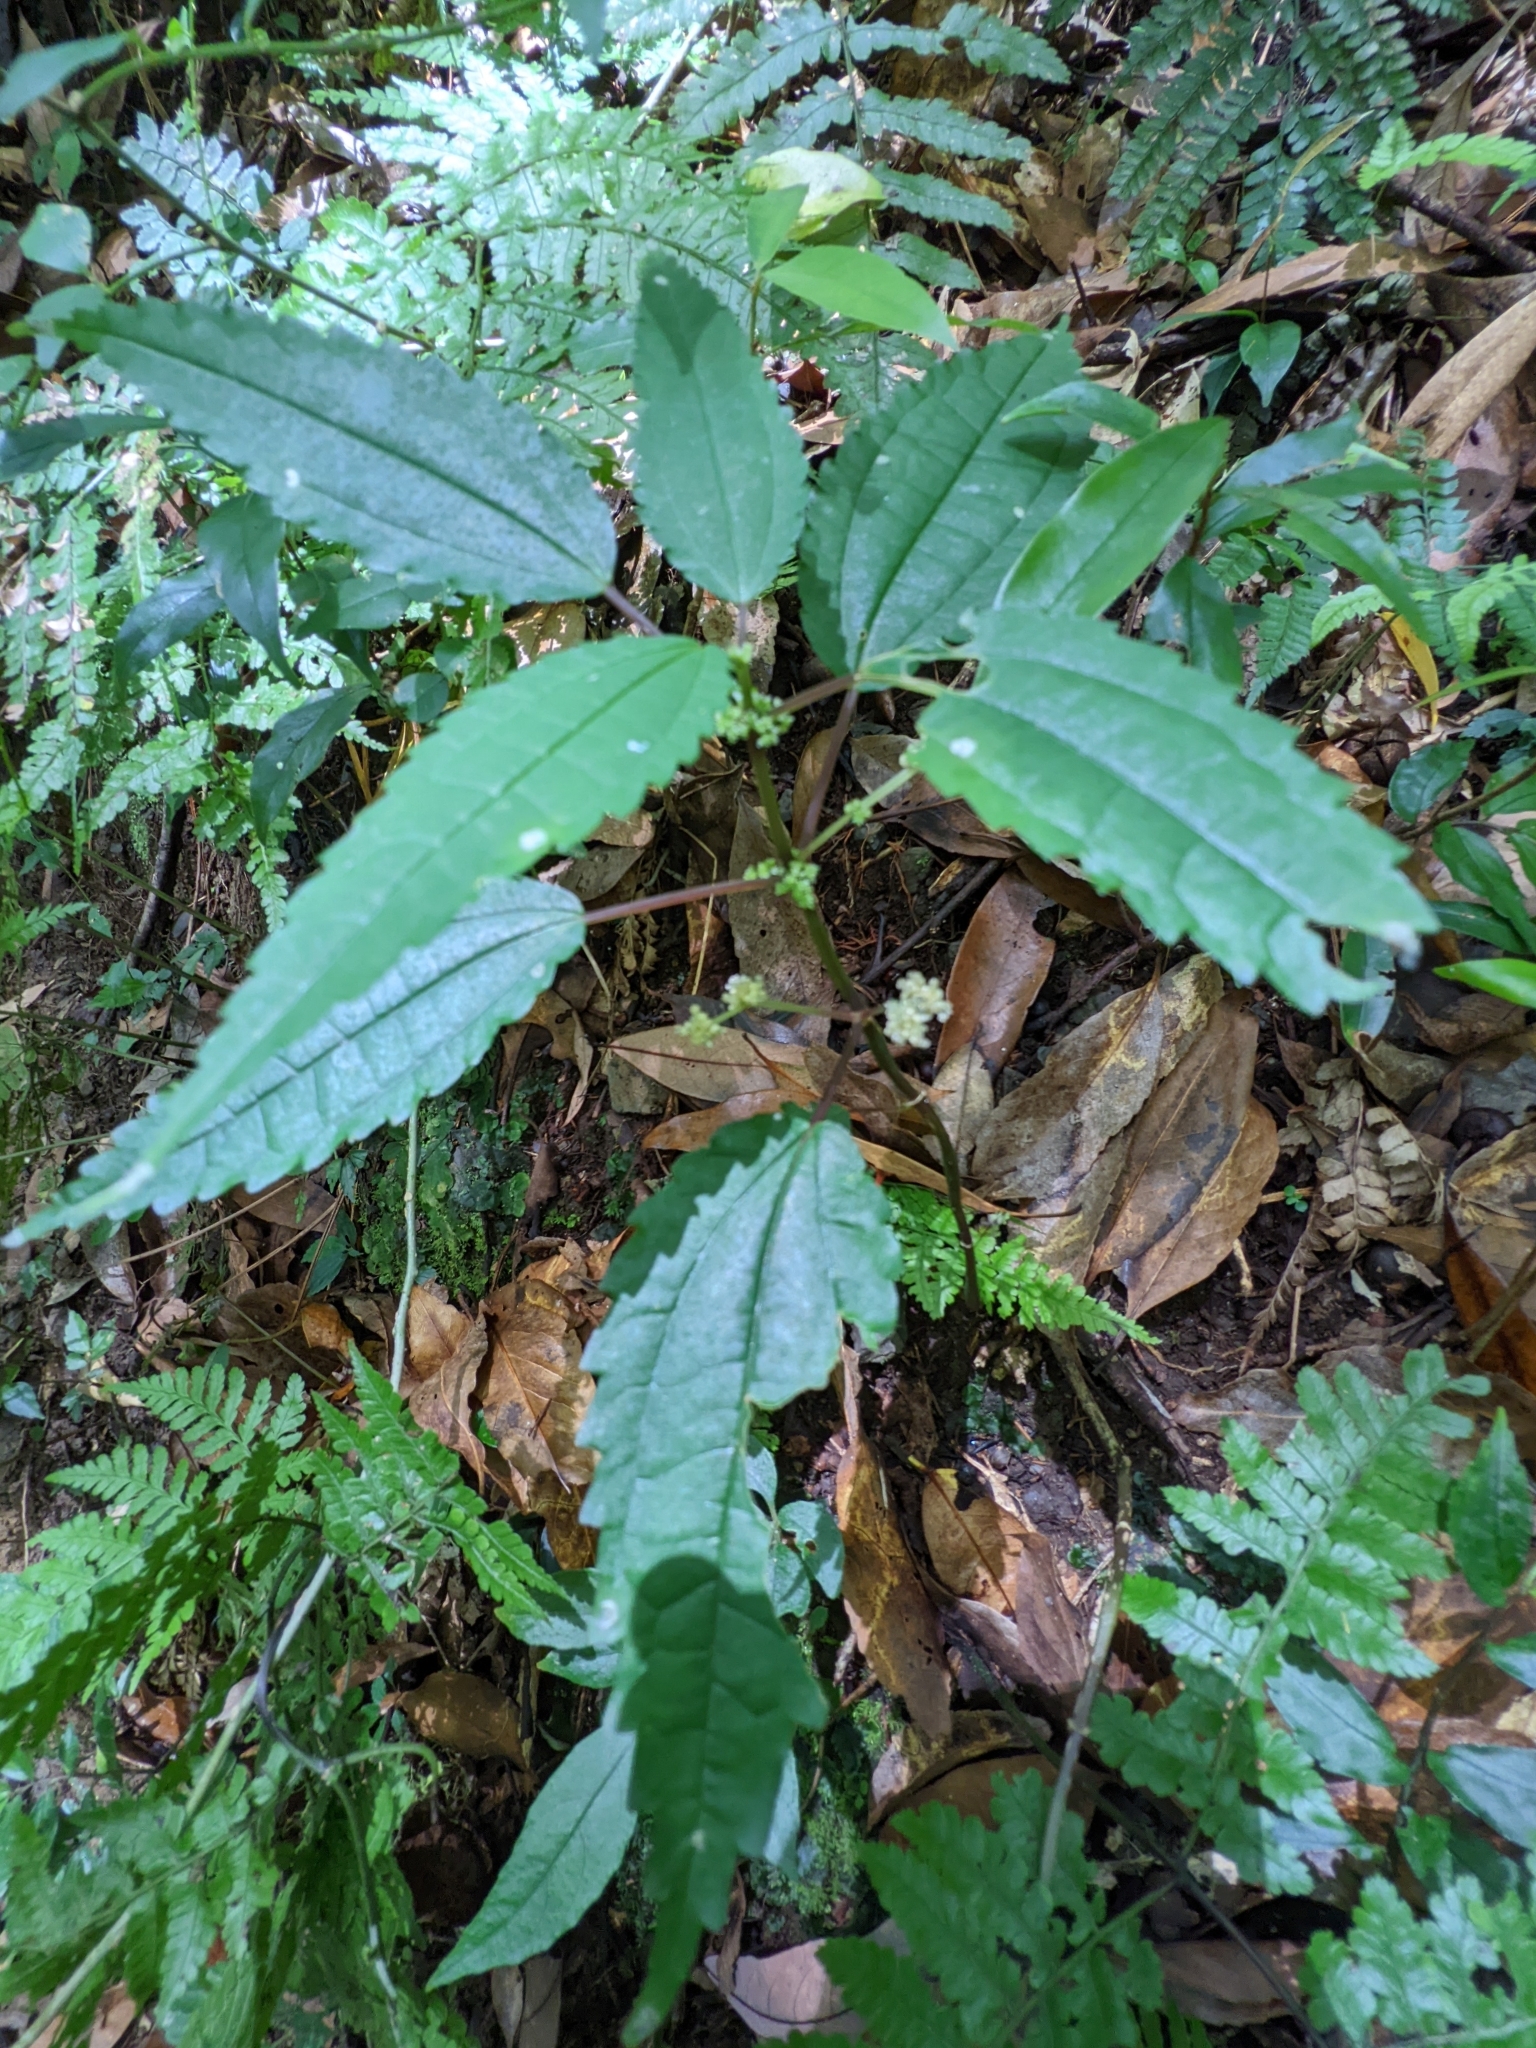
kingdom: Plantae
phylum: Tracheophyta
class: Magnoliopsida
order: Rosales
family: Urticaceae
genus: Pilea
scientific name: Pilea angulata
